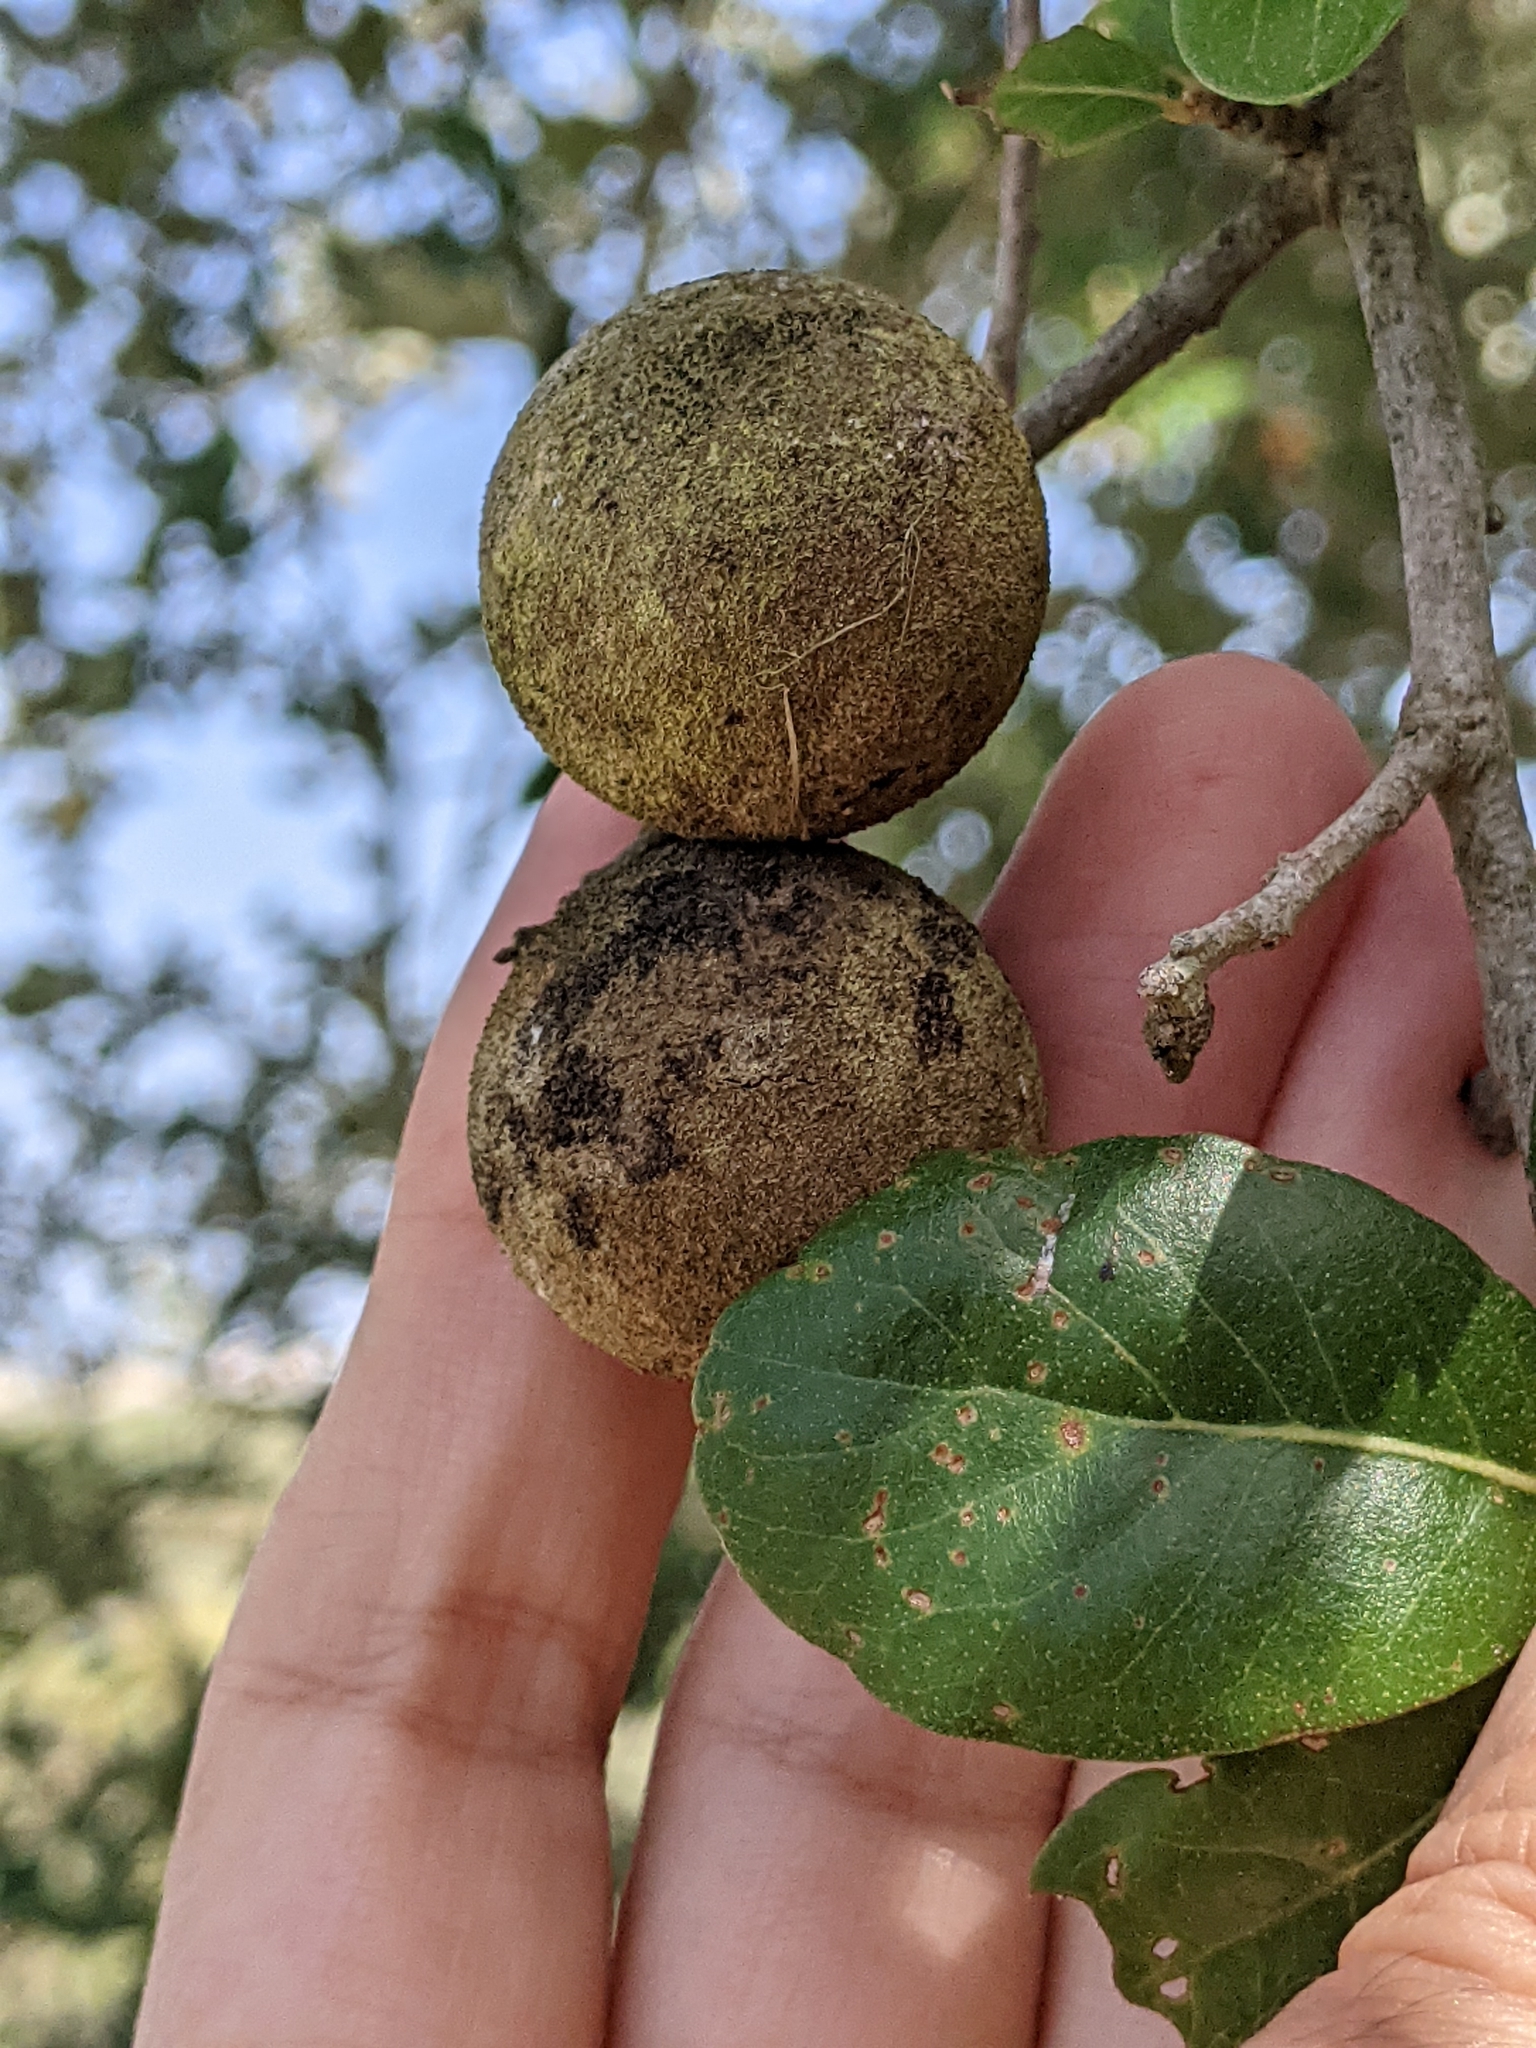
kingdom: Animalia
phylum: Arthropoda
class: Insecta
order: Hymenoptera
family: Cynipidae
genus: Disholcaspis
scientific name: Disholcaspis
